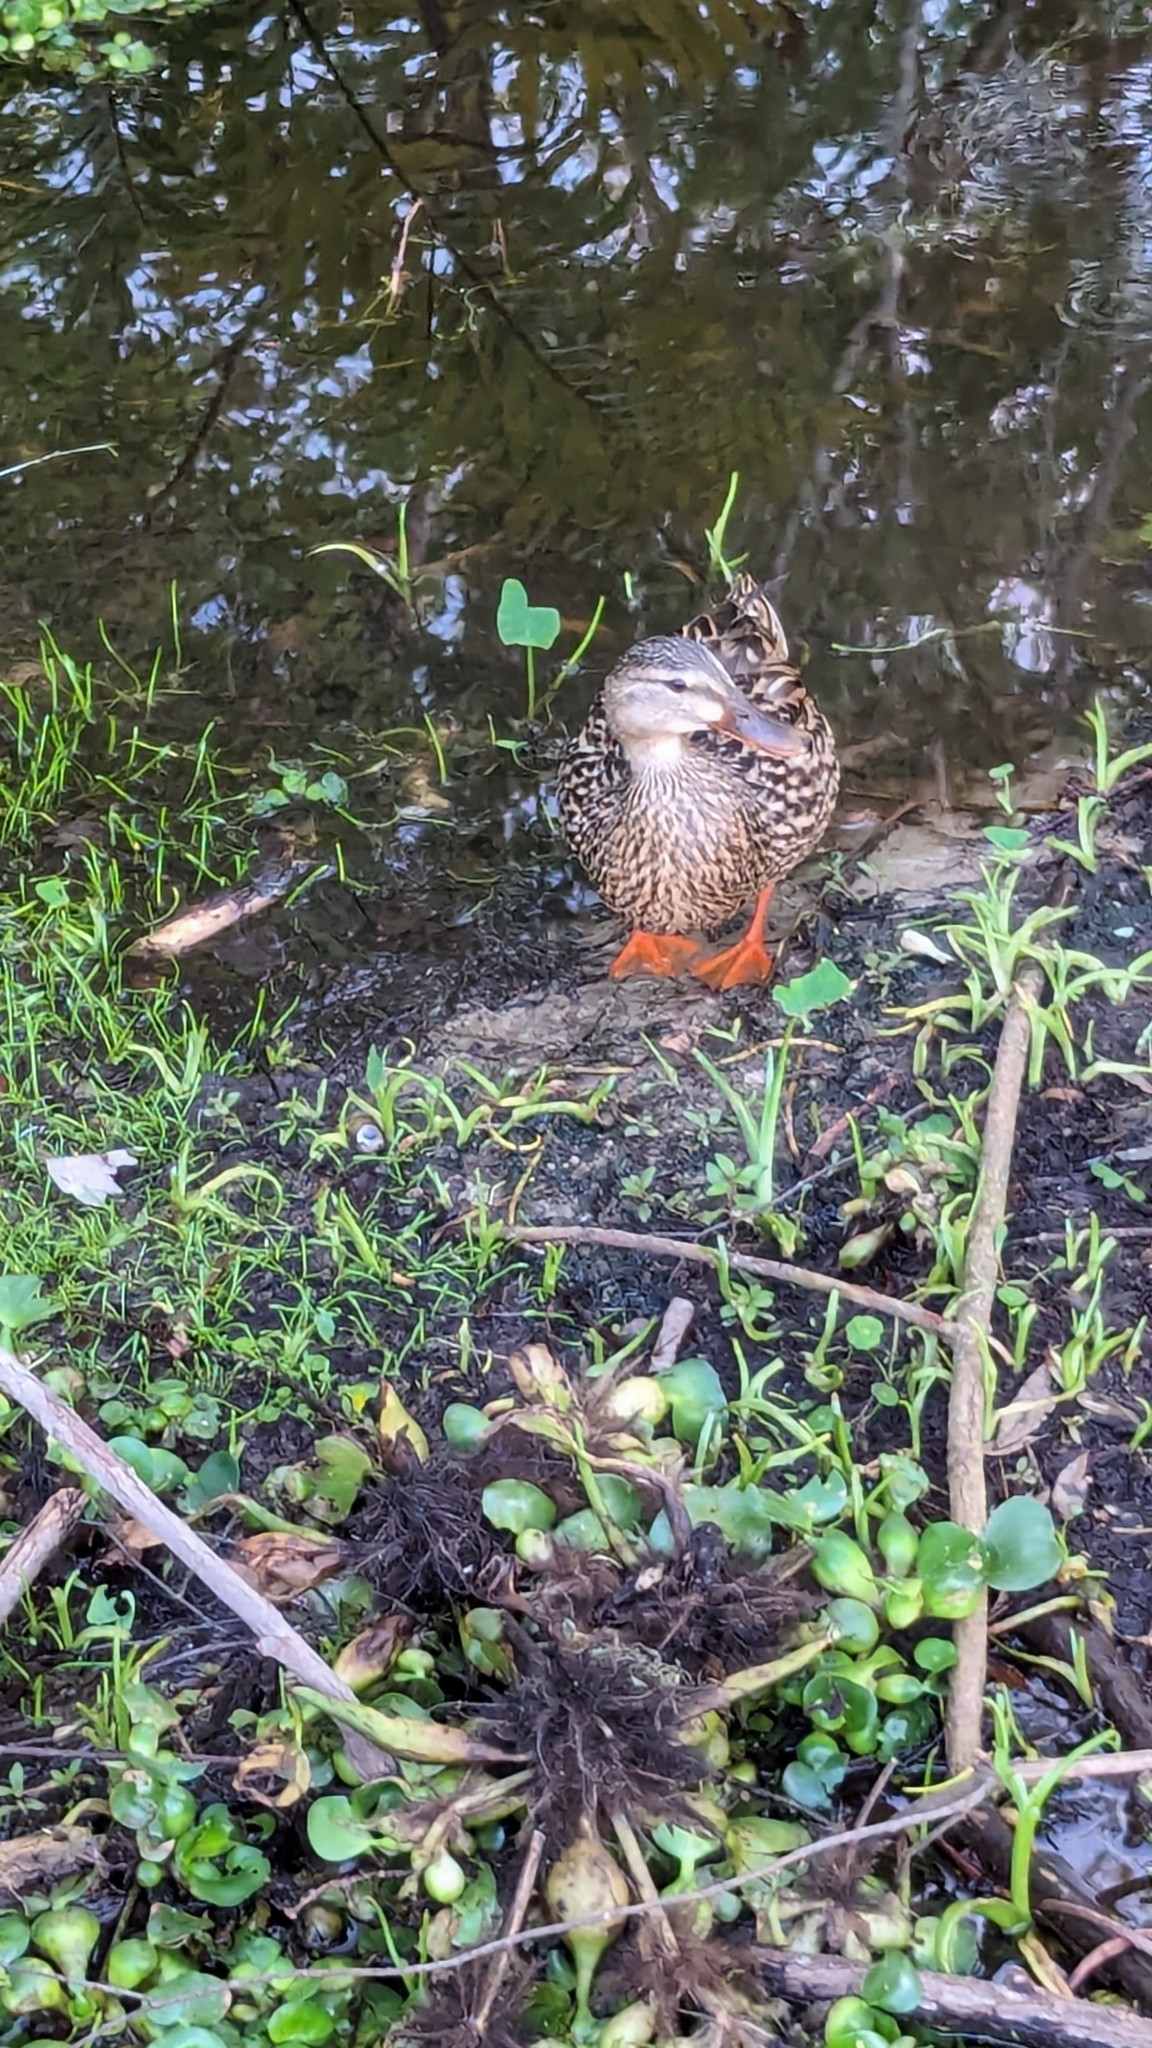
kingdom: Animalia
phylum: Chordata
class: Aves
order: Anseriformes
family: Anatidae
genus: Anas
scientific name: Anas platyrhynchos
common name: Mallard
